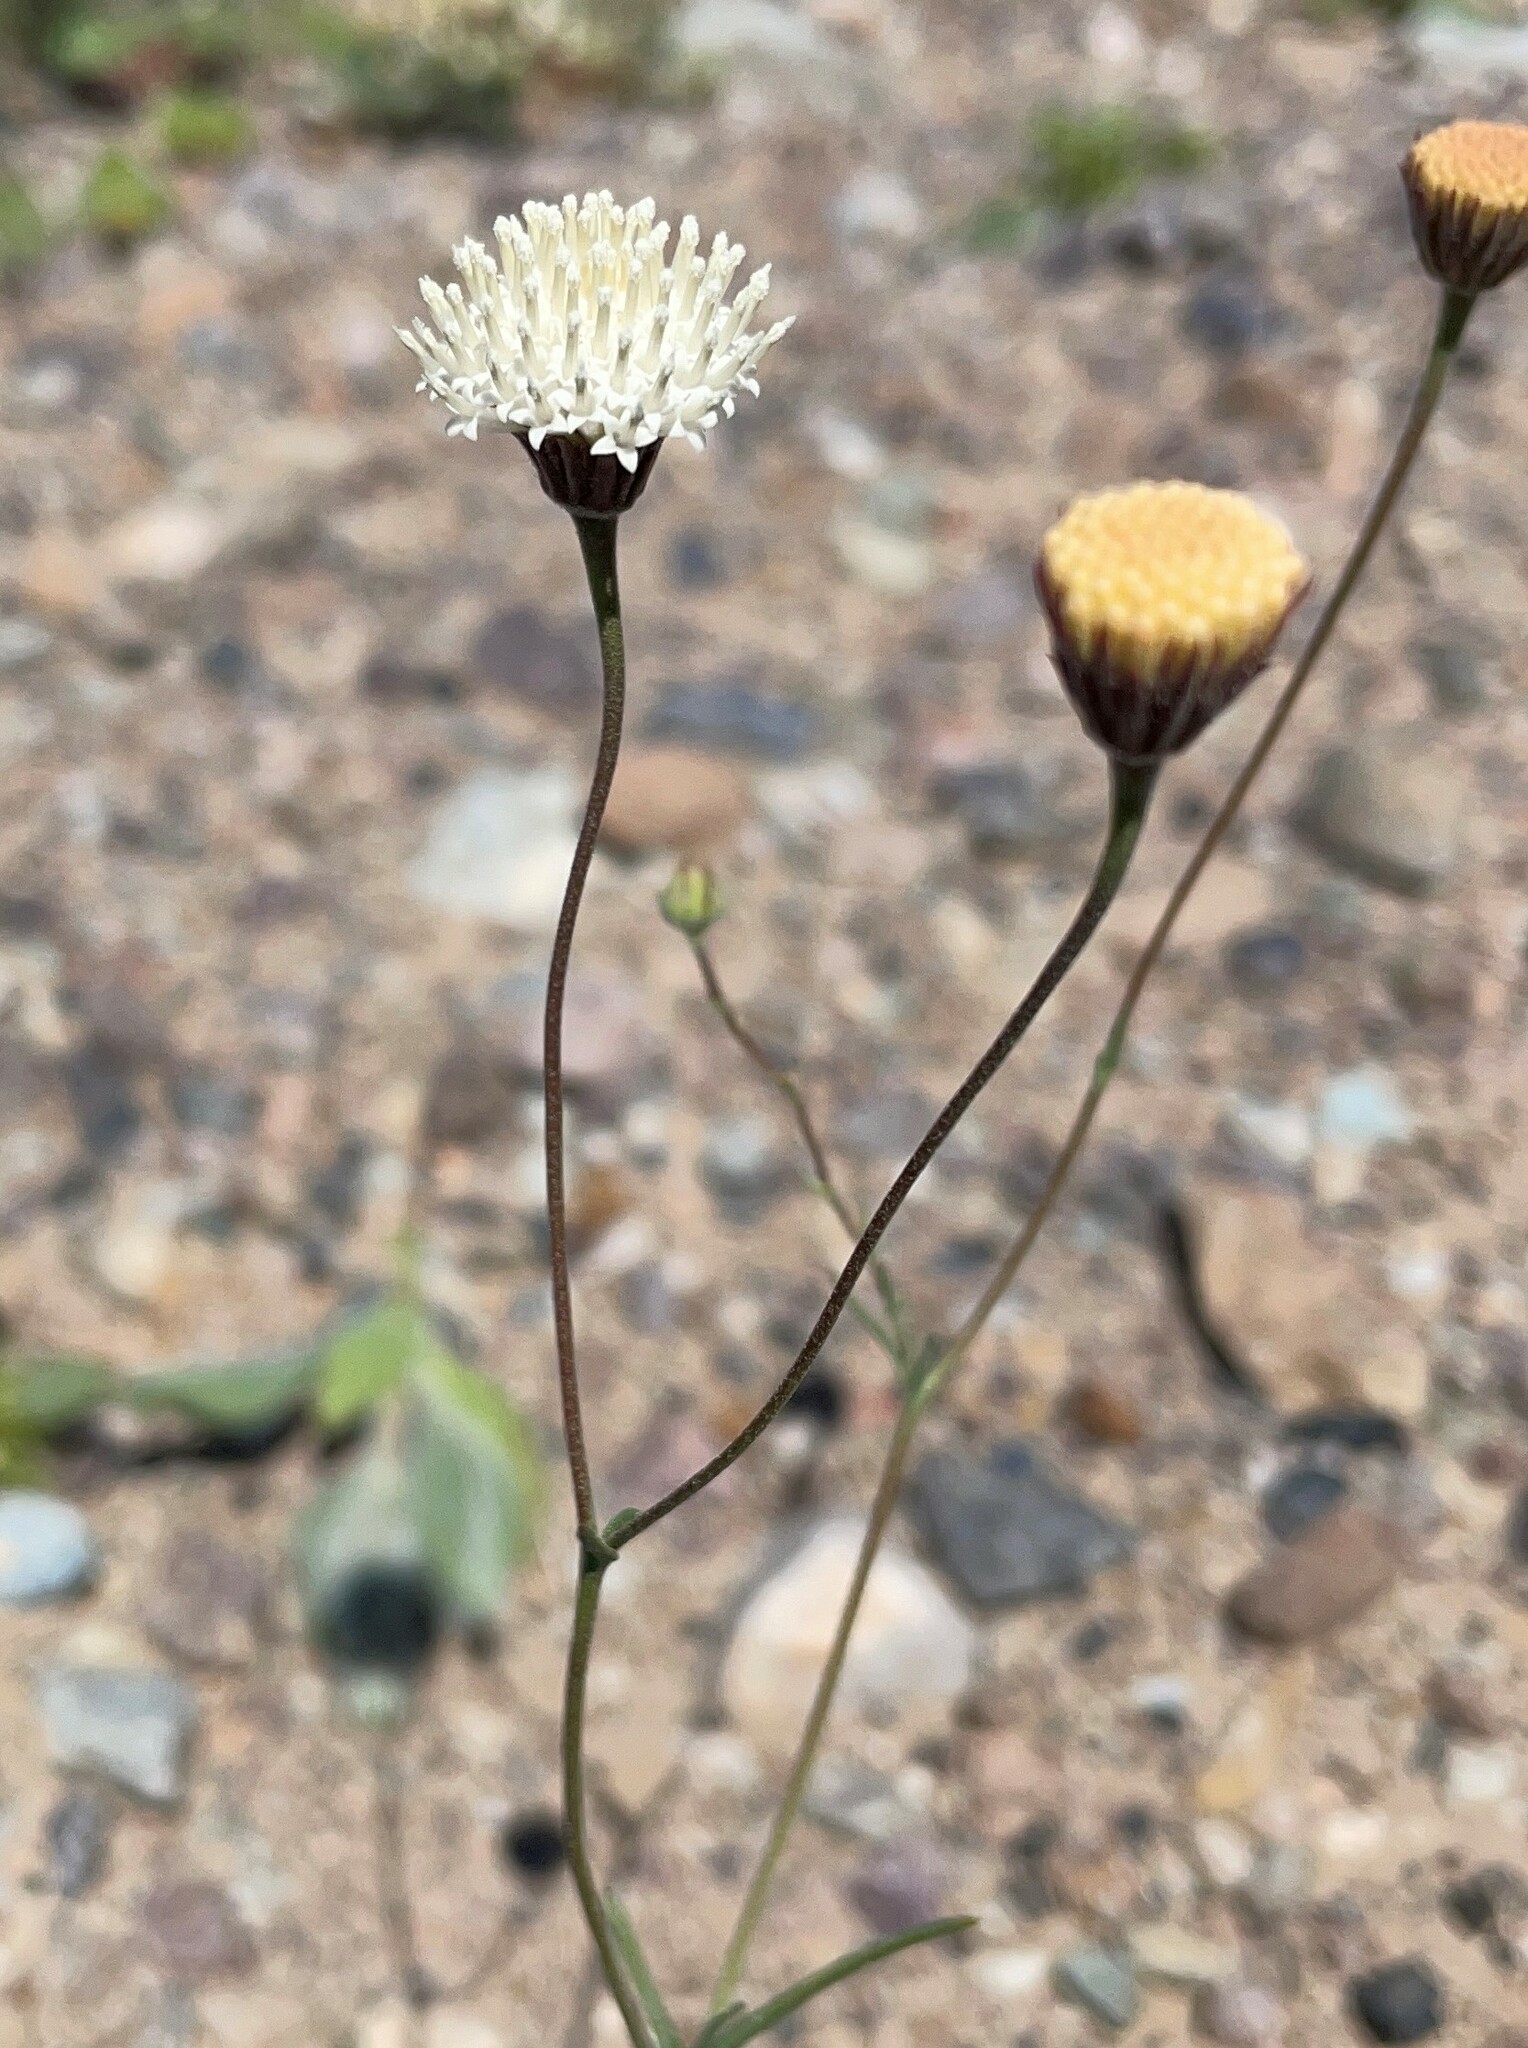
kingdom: Plantae
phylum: Tracheophyta
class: Magnoliopsida
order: Asterales
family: Asteraceae
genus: Chaenactis
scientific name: Chaenactis carphoclinia
